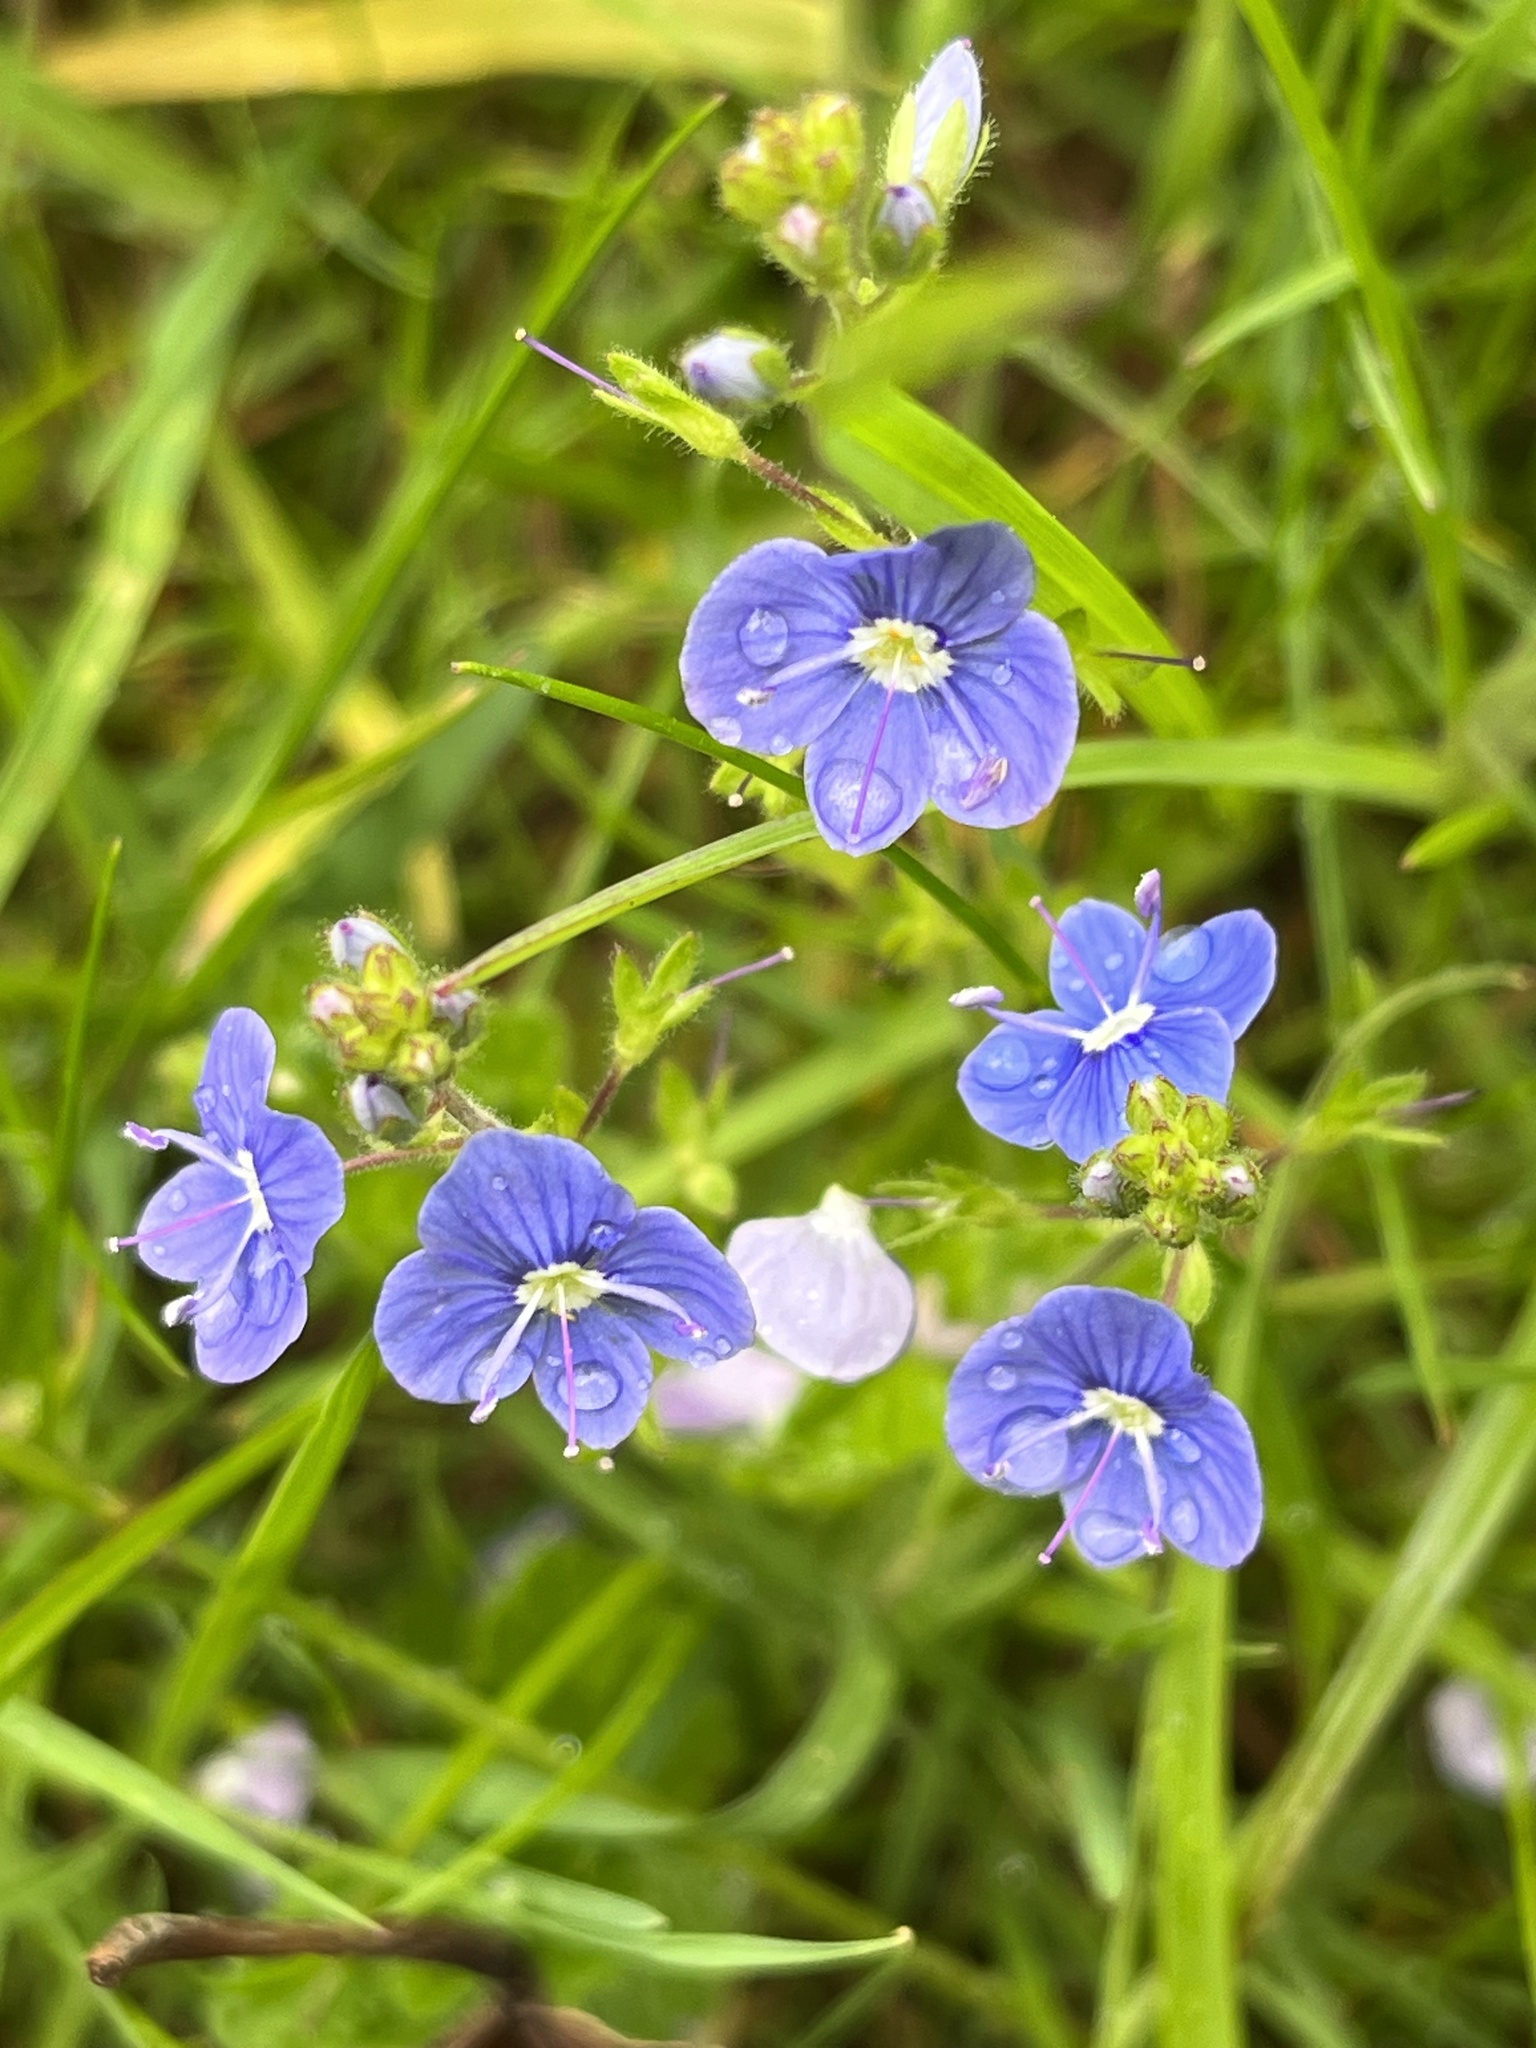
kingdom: Plantae
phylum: Tracheophyta
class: Magnoliopsida
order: Lamiales
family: Plantaginaceae
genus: Veronica
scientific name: Veronica chamaedrys
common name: Germander speedwell
